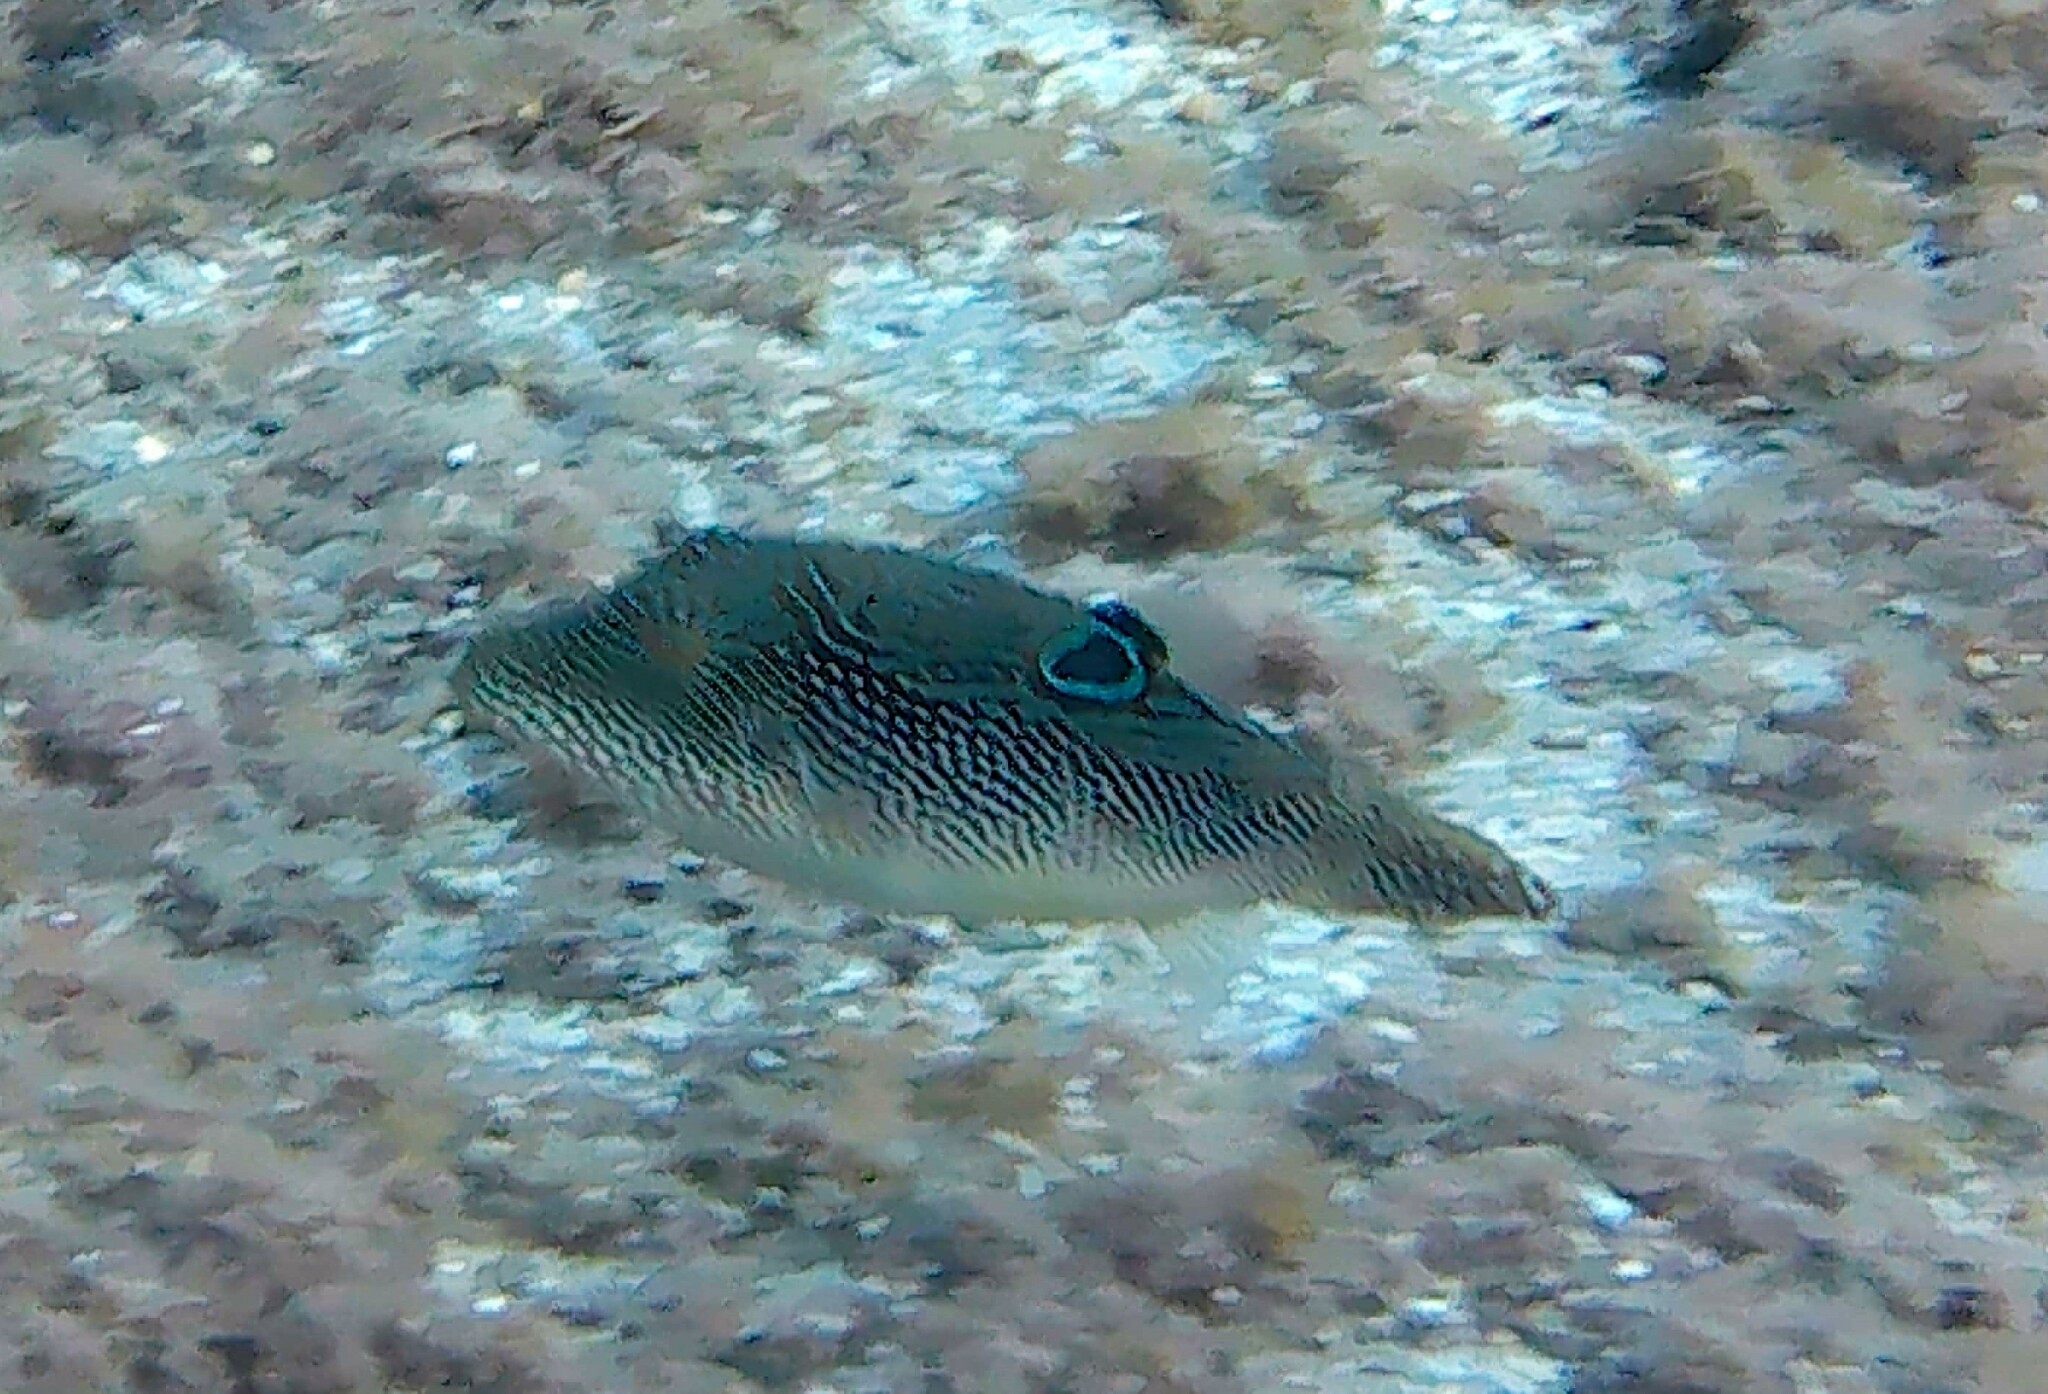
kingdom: Animalia
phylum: Chordata
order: Tetraodontiformes
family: Tetraodontidae
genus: Canthigaster
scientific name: Canthigaster petersii
